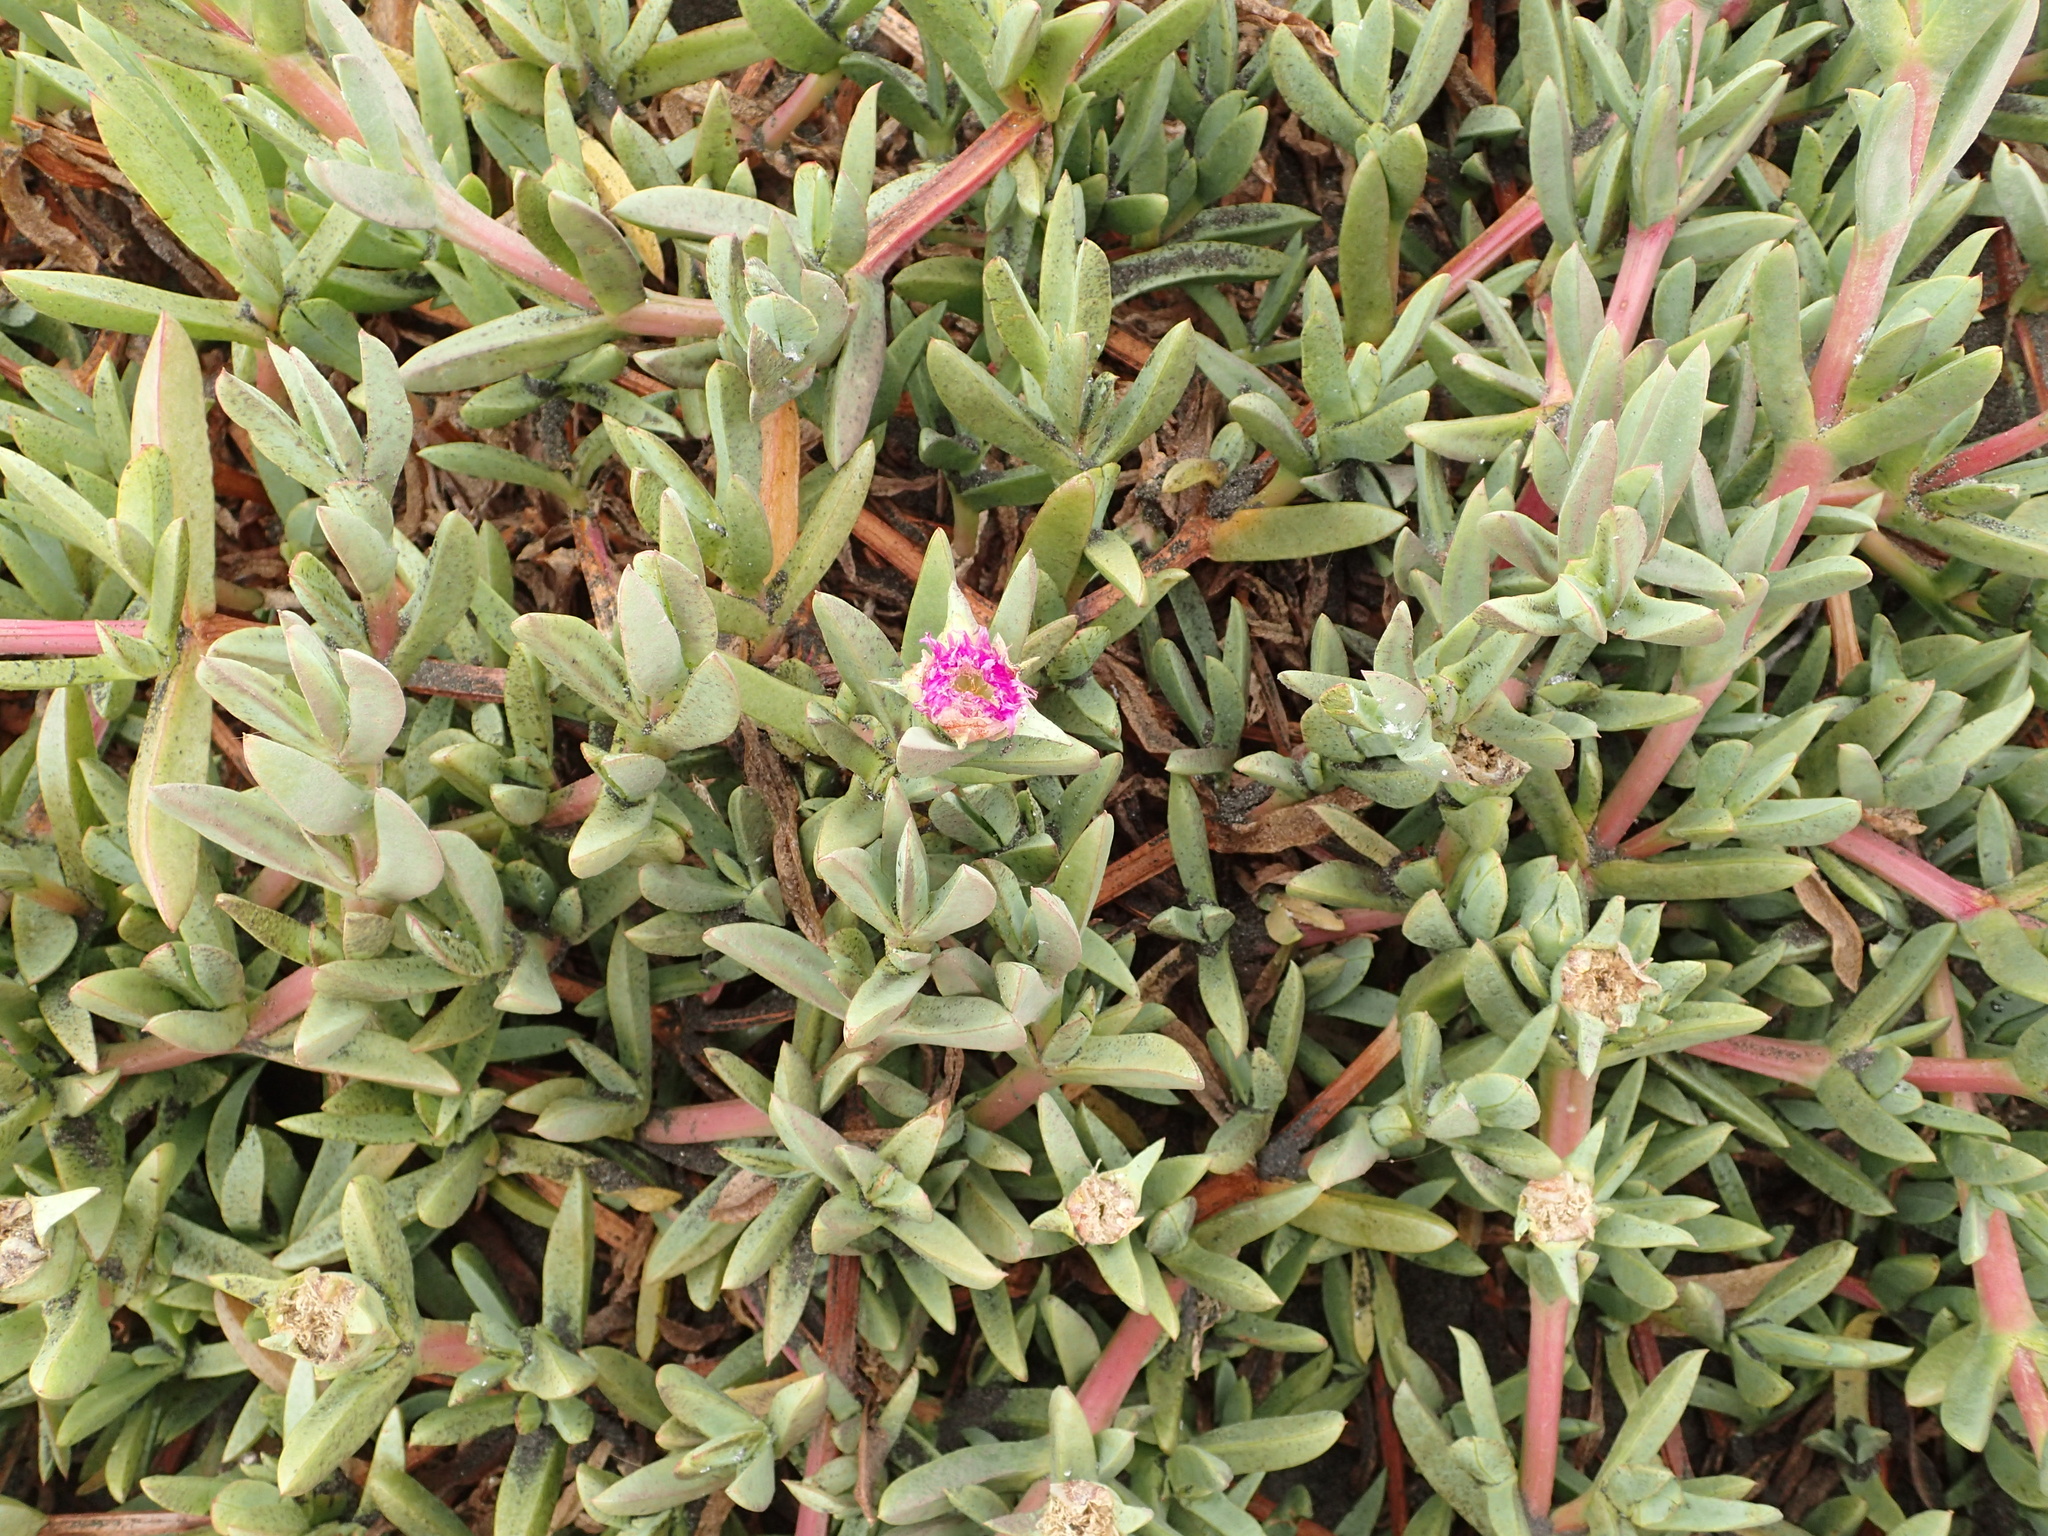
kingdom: Plantae
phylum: Tracheophyta
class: Magnoliopsida
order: Caryophyllales
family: Aizoaceae
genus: Carpobrotus
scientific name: Carpobrotus chilensis
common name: Sea fig
